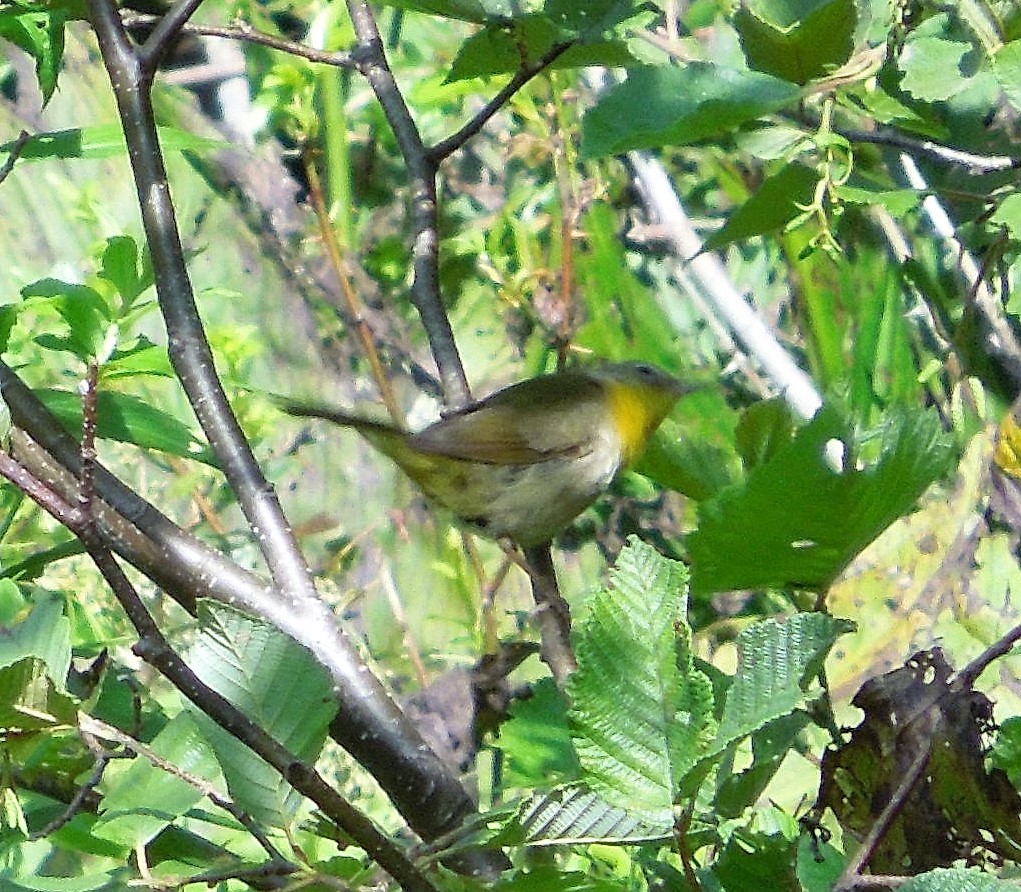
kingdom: Animalia
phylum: Chordata
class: Aves
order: Passeriformes
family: Parulidae
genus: Geothlypis
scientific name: Geothlypis trichas
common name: Common yellowthroat
